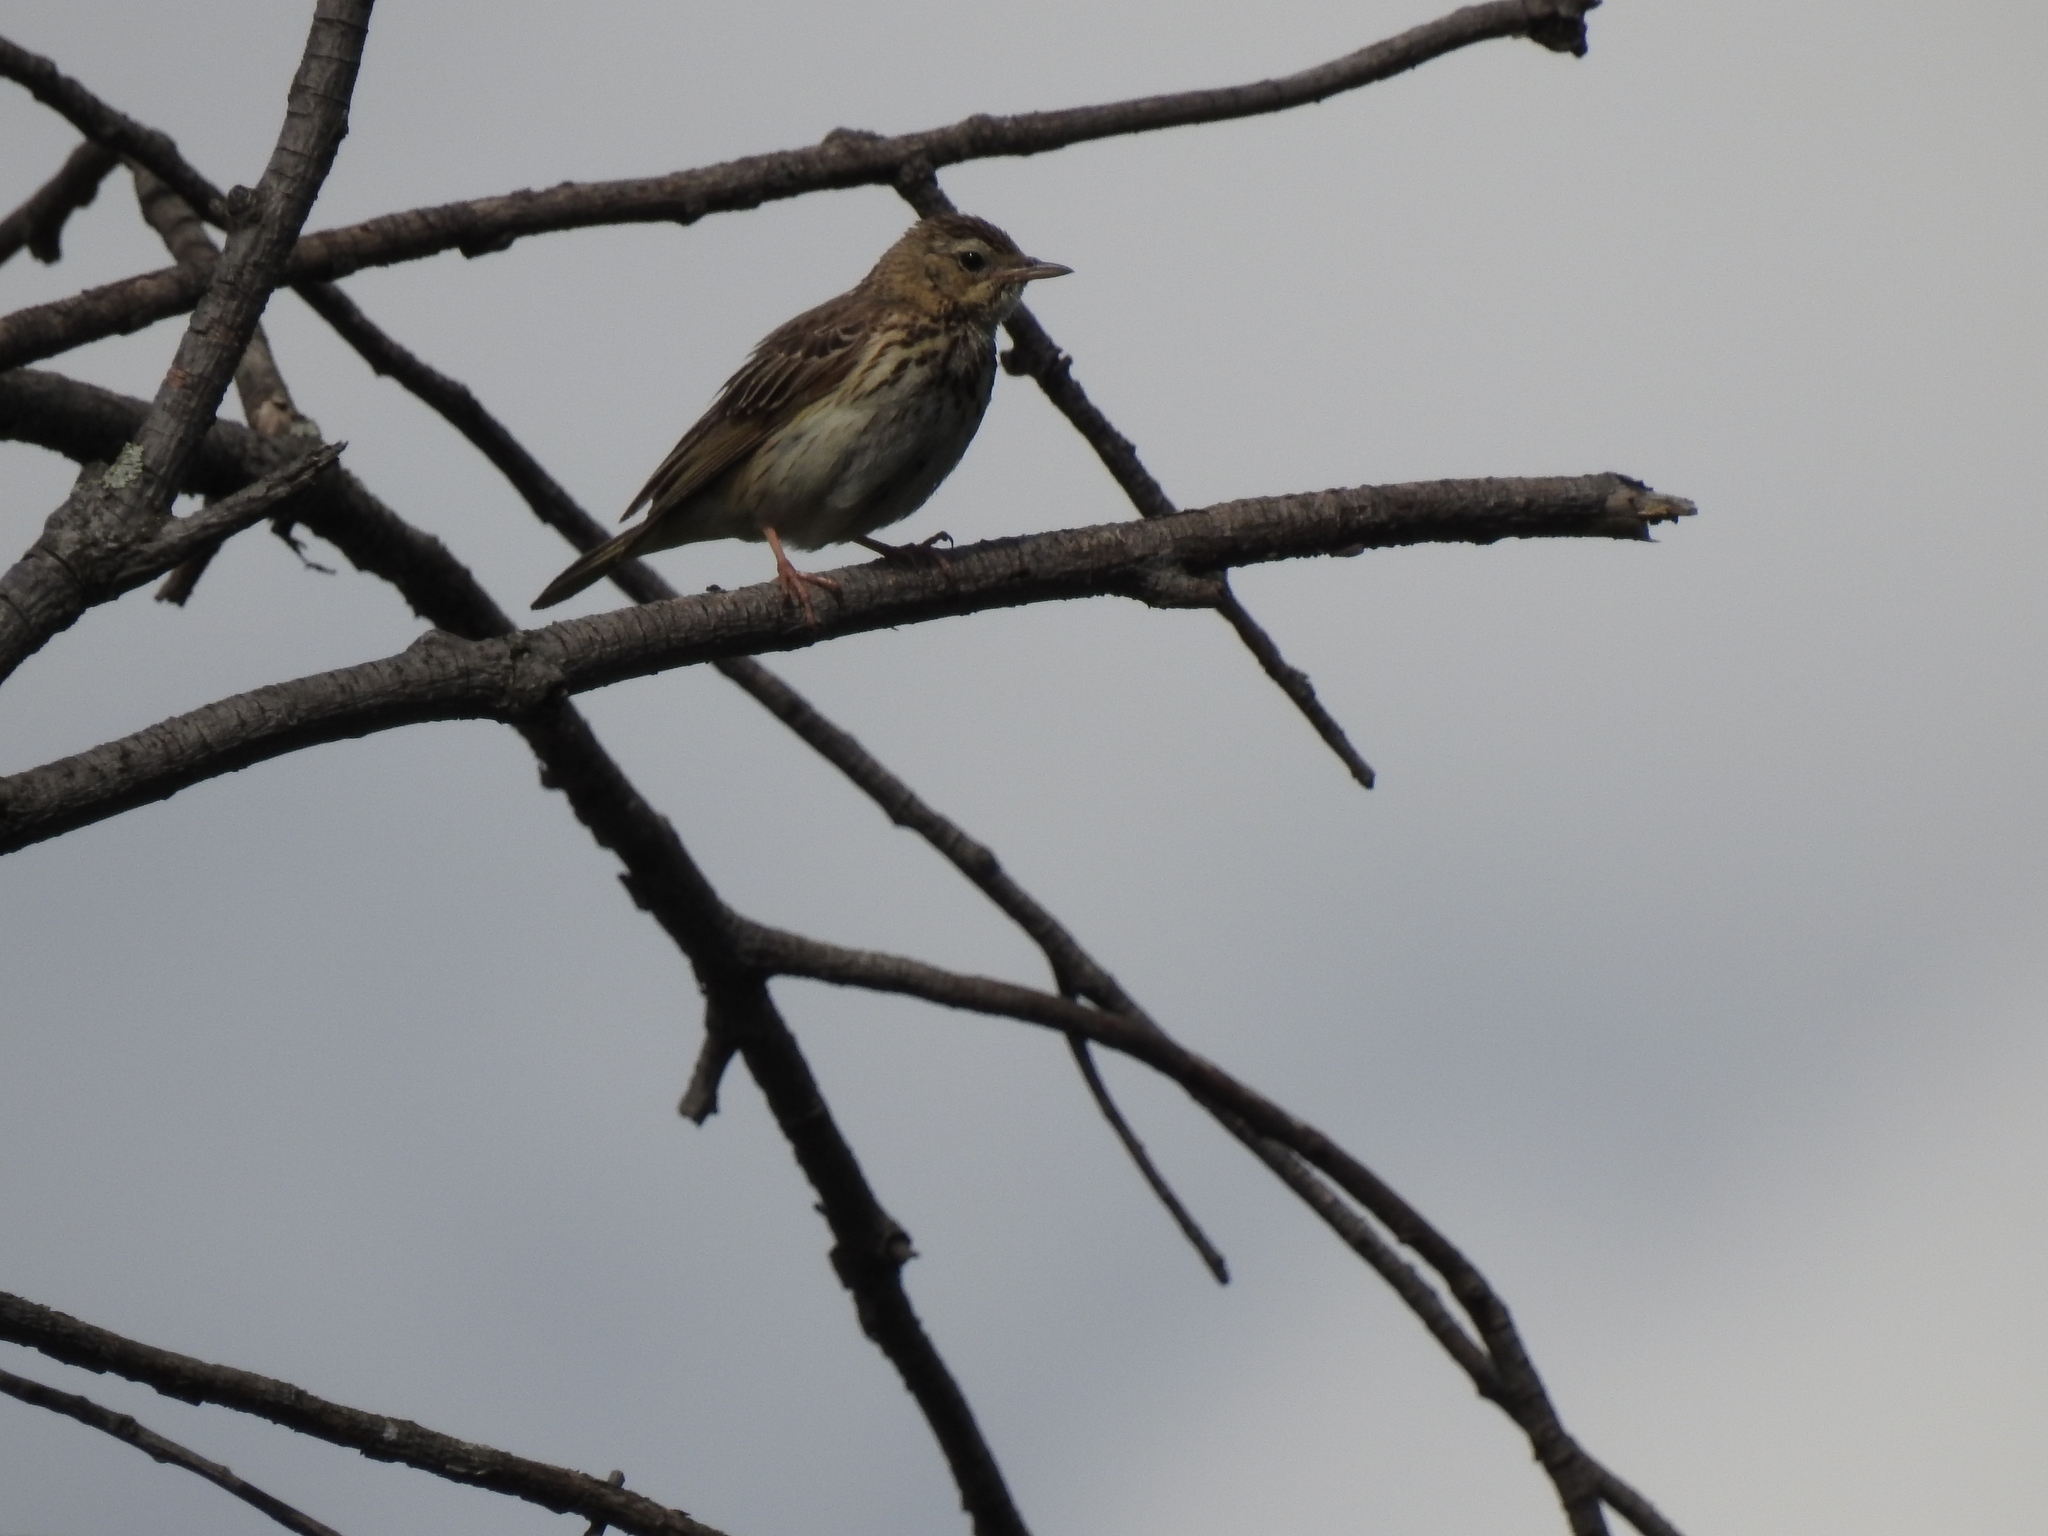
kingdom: Animalia
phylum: Chordata
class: Aves
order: Passeriformes
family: Motacillidae
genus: Anthus
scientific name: Anthus trivialis
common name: Tree pipit
